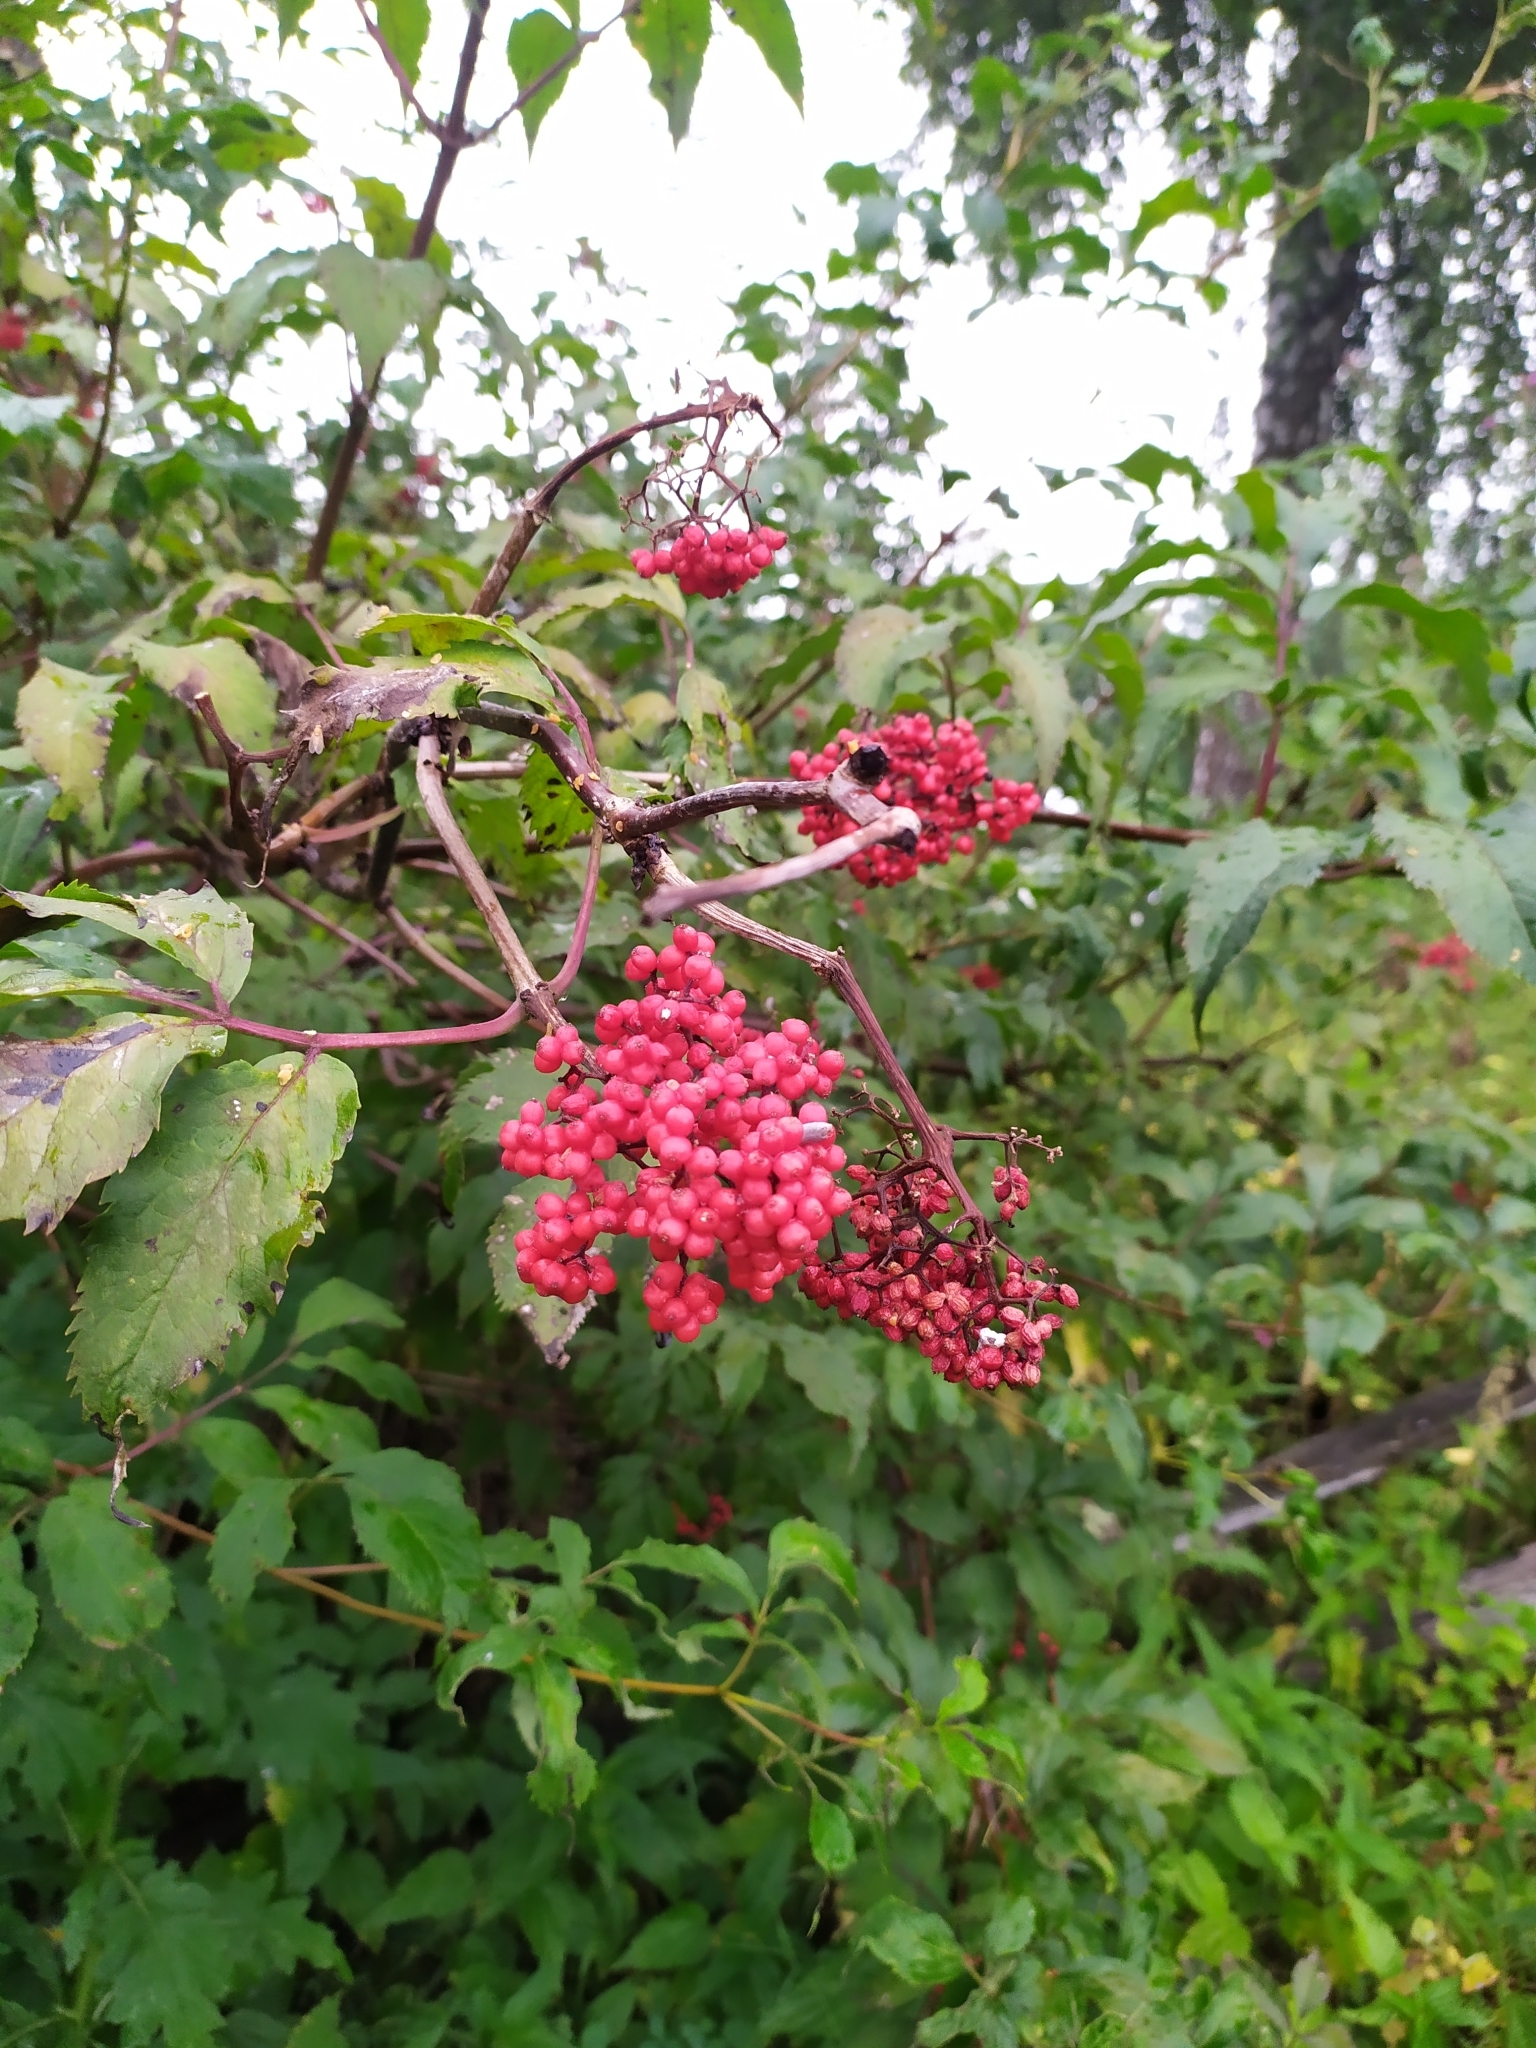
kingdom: Plantae
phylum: Tracheophyta
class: Magnoliopsida
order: Dipsacales
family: Viburnaceae
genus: Sambucus
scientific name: Sambucus racemosa
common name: Red-berried elder
